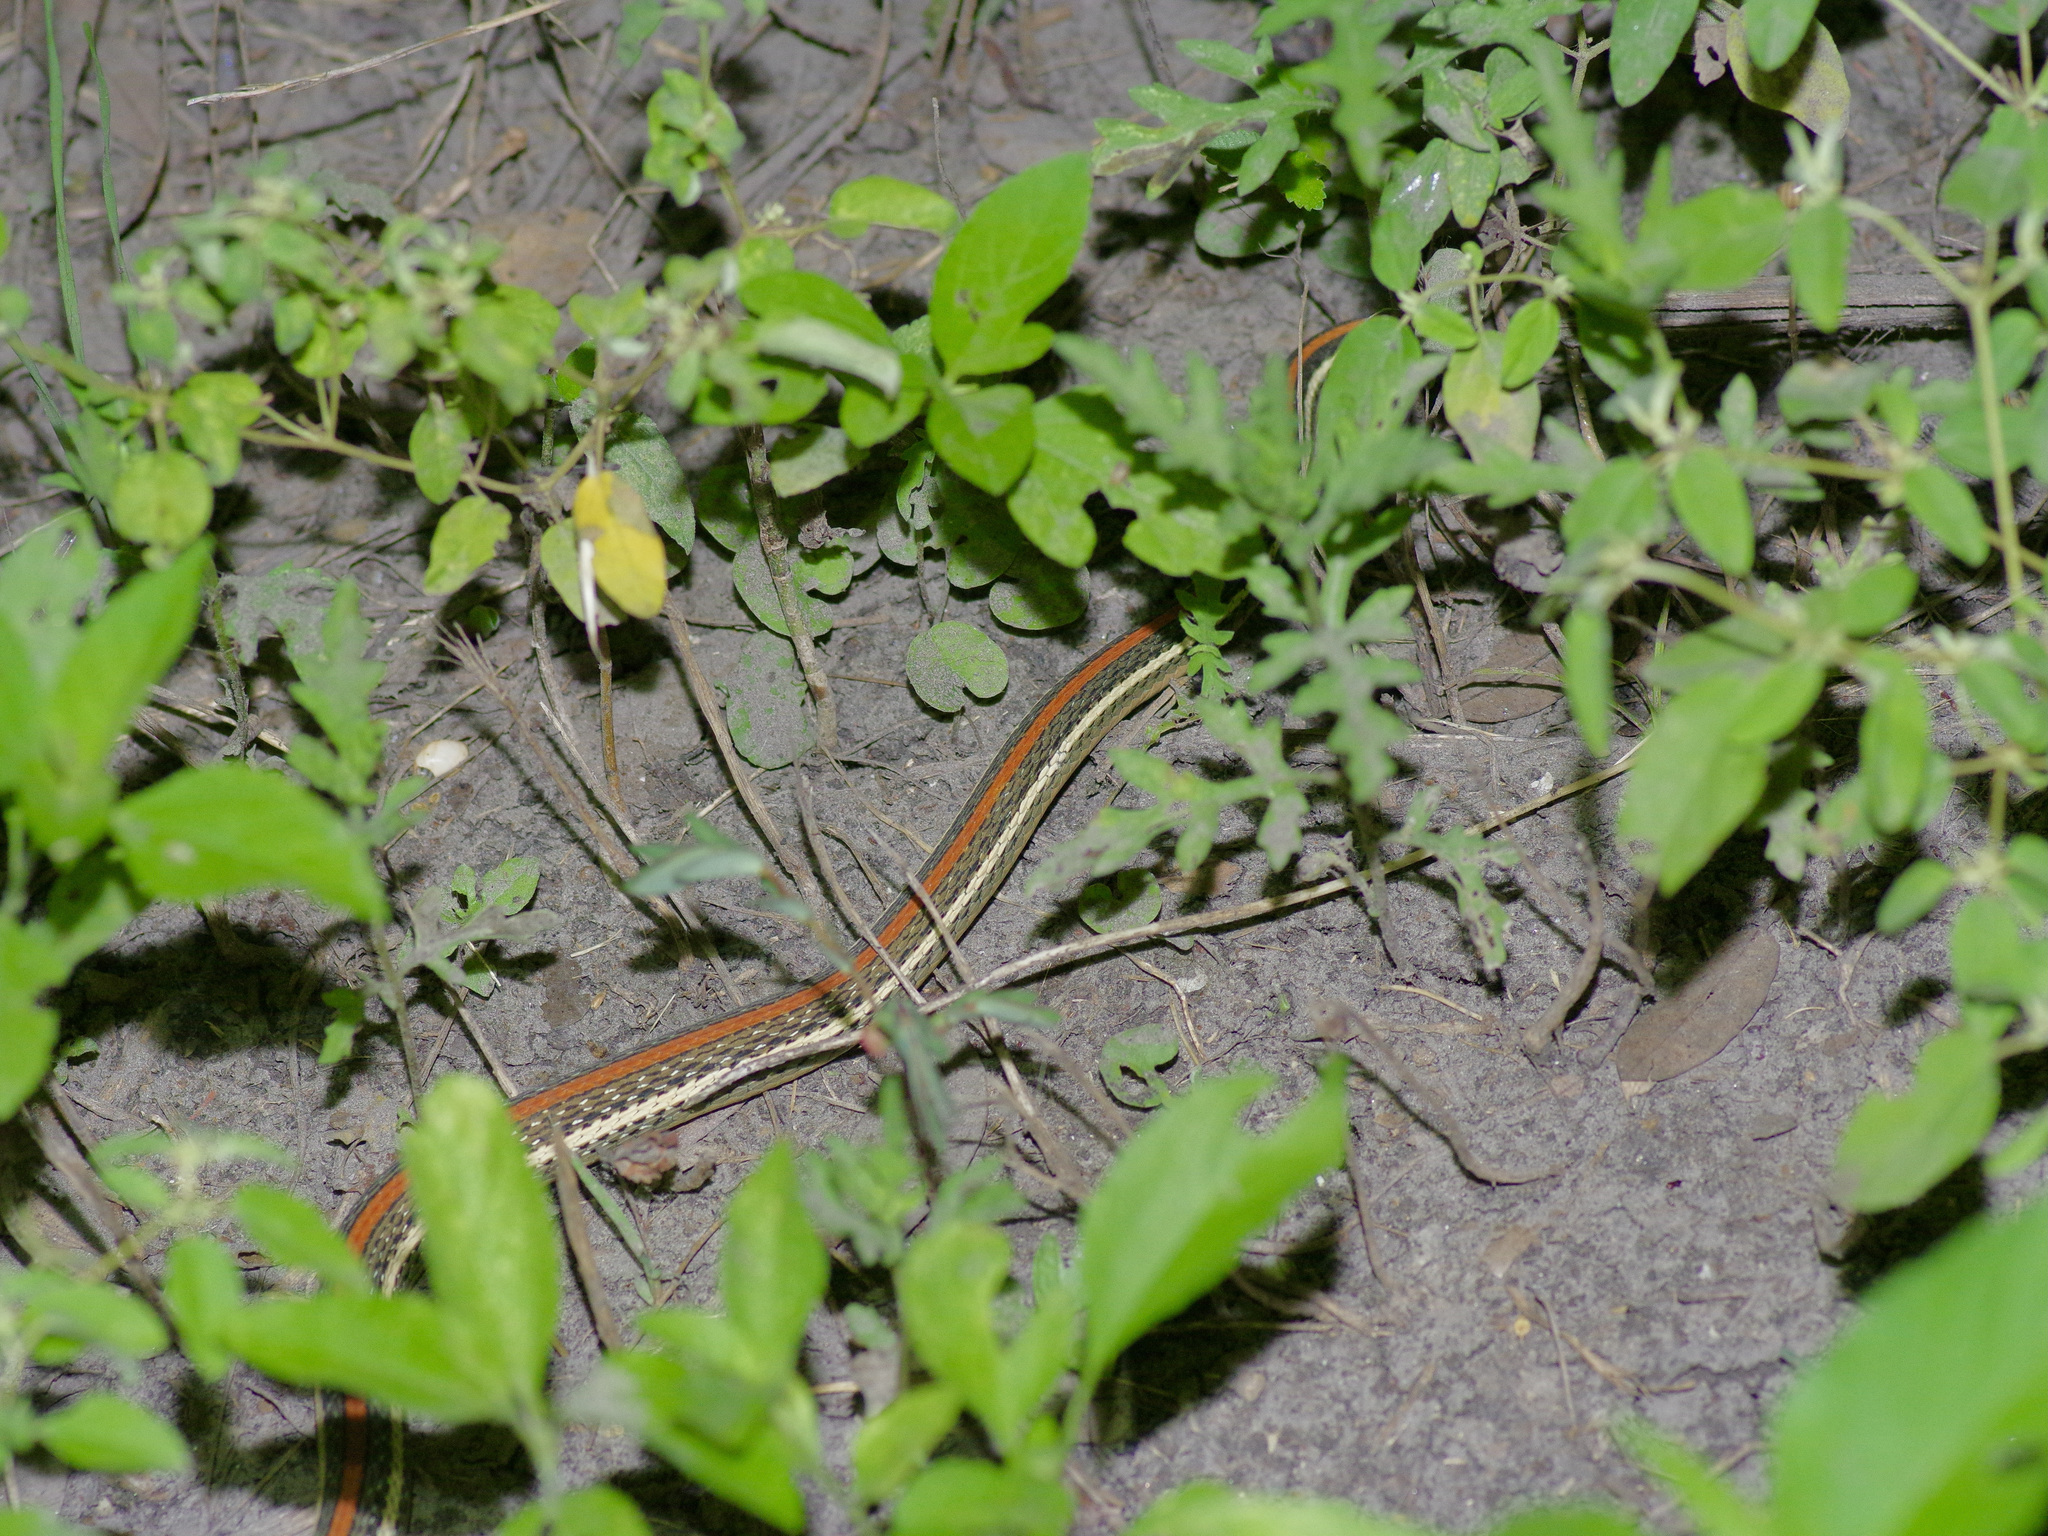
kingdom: Animalia
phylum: Chordata
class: Squamata
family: Colubridae
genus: Thamnophis
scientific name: Thamnophis proximus
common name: Western ribbon snake
